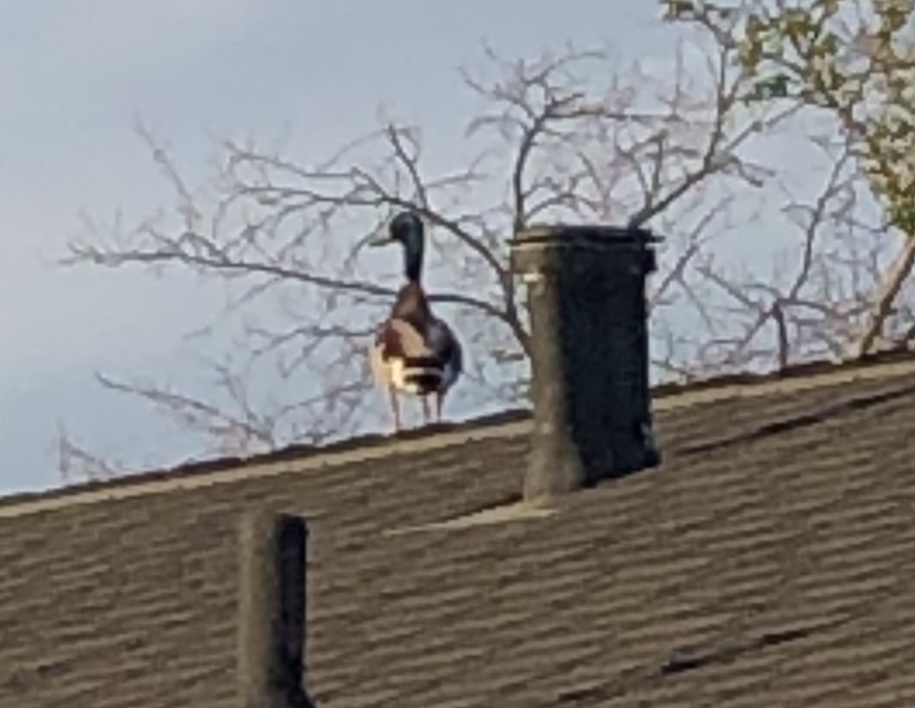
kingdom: Animalia
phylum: Chordata
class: Aves
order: Anseriformes
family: Anatidae
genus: Anas
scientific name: Anas platyrhynchos
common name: Mallard
